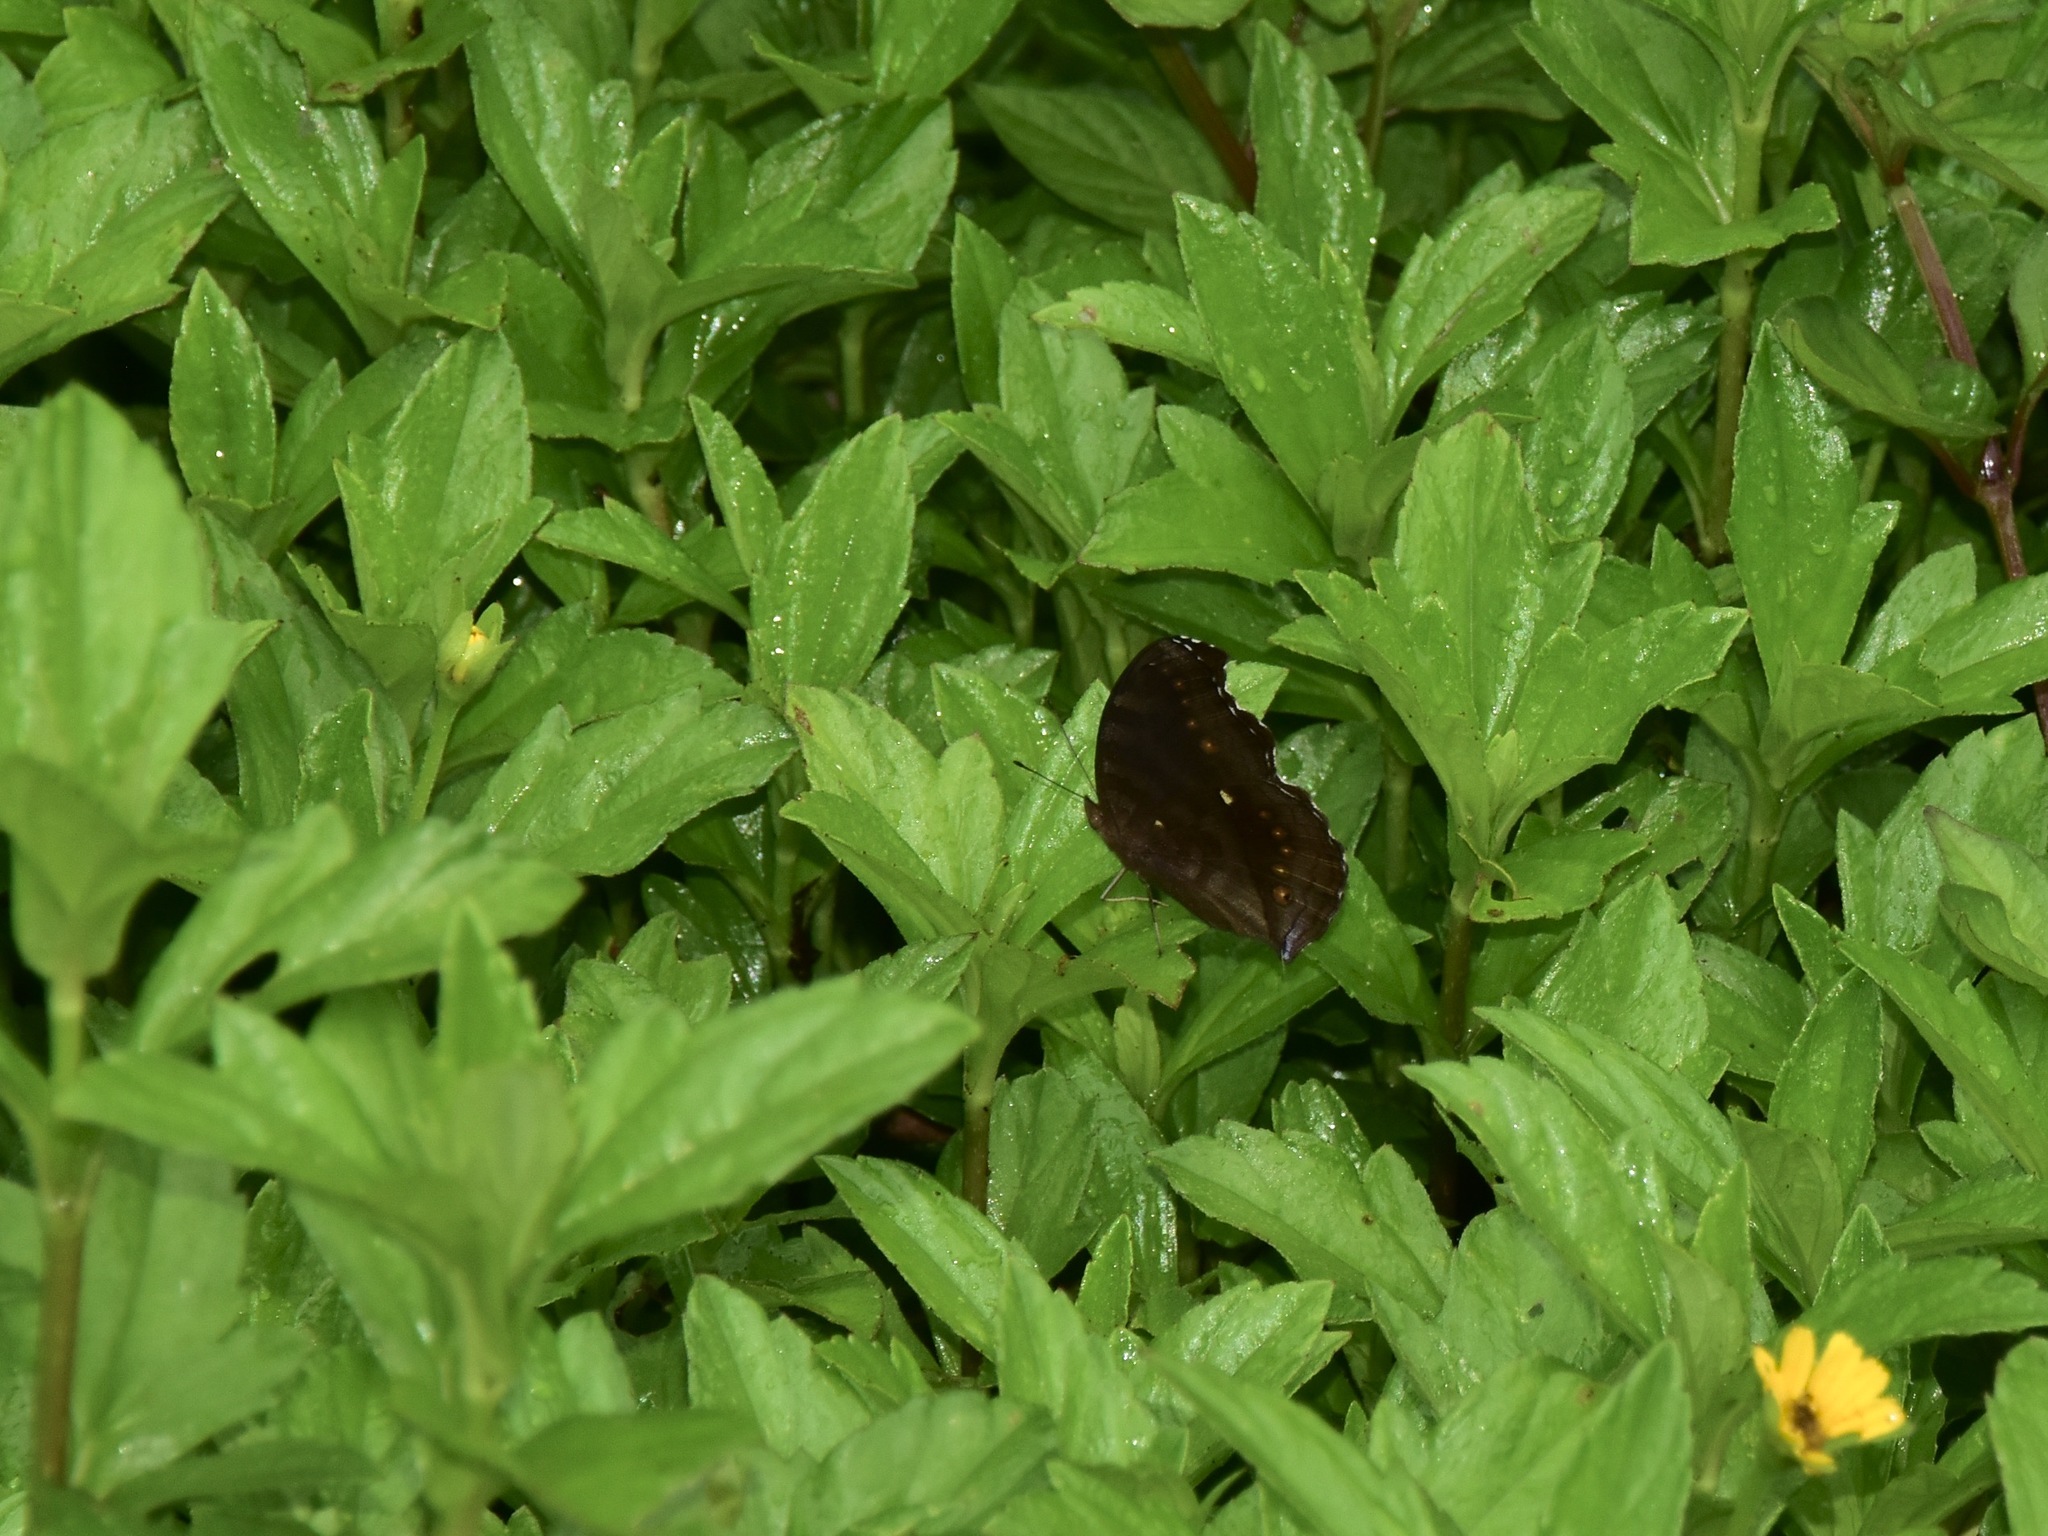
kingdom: Animalia
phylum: Arthropoda
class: Insecta
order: Lepidoptera
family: Nymphalidae
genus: Junonia
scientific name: Junonia hedonia
